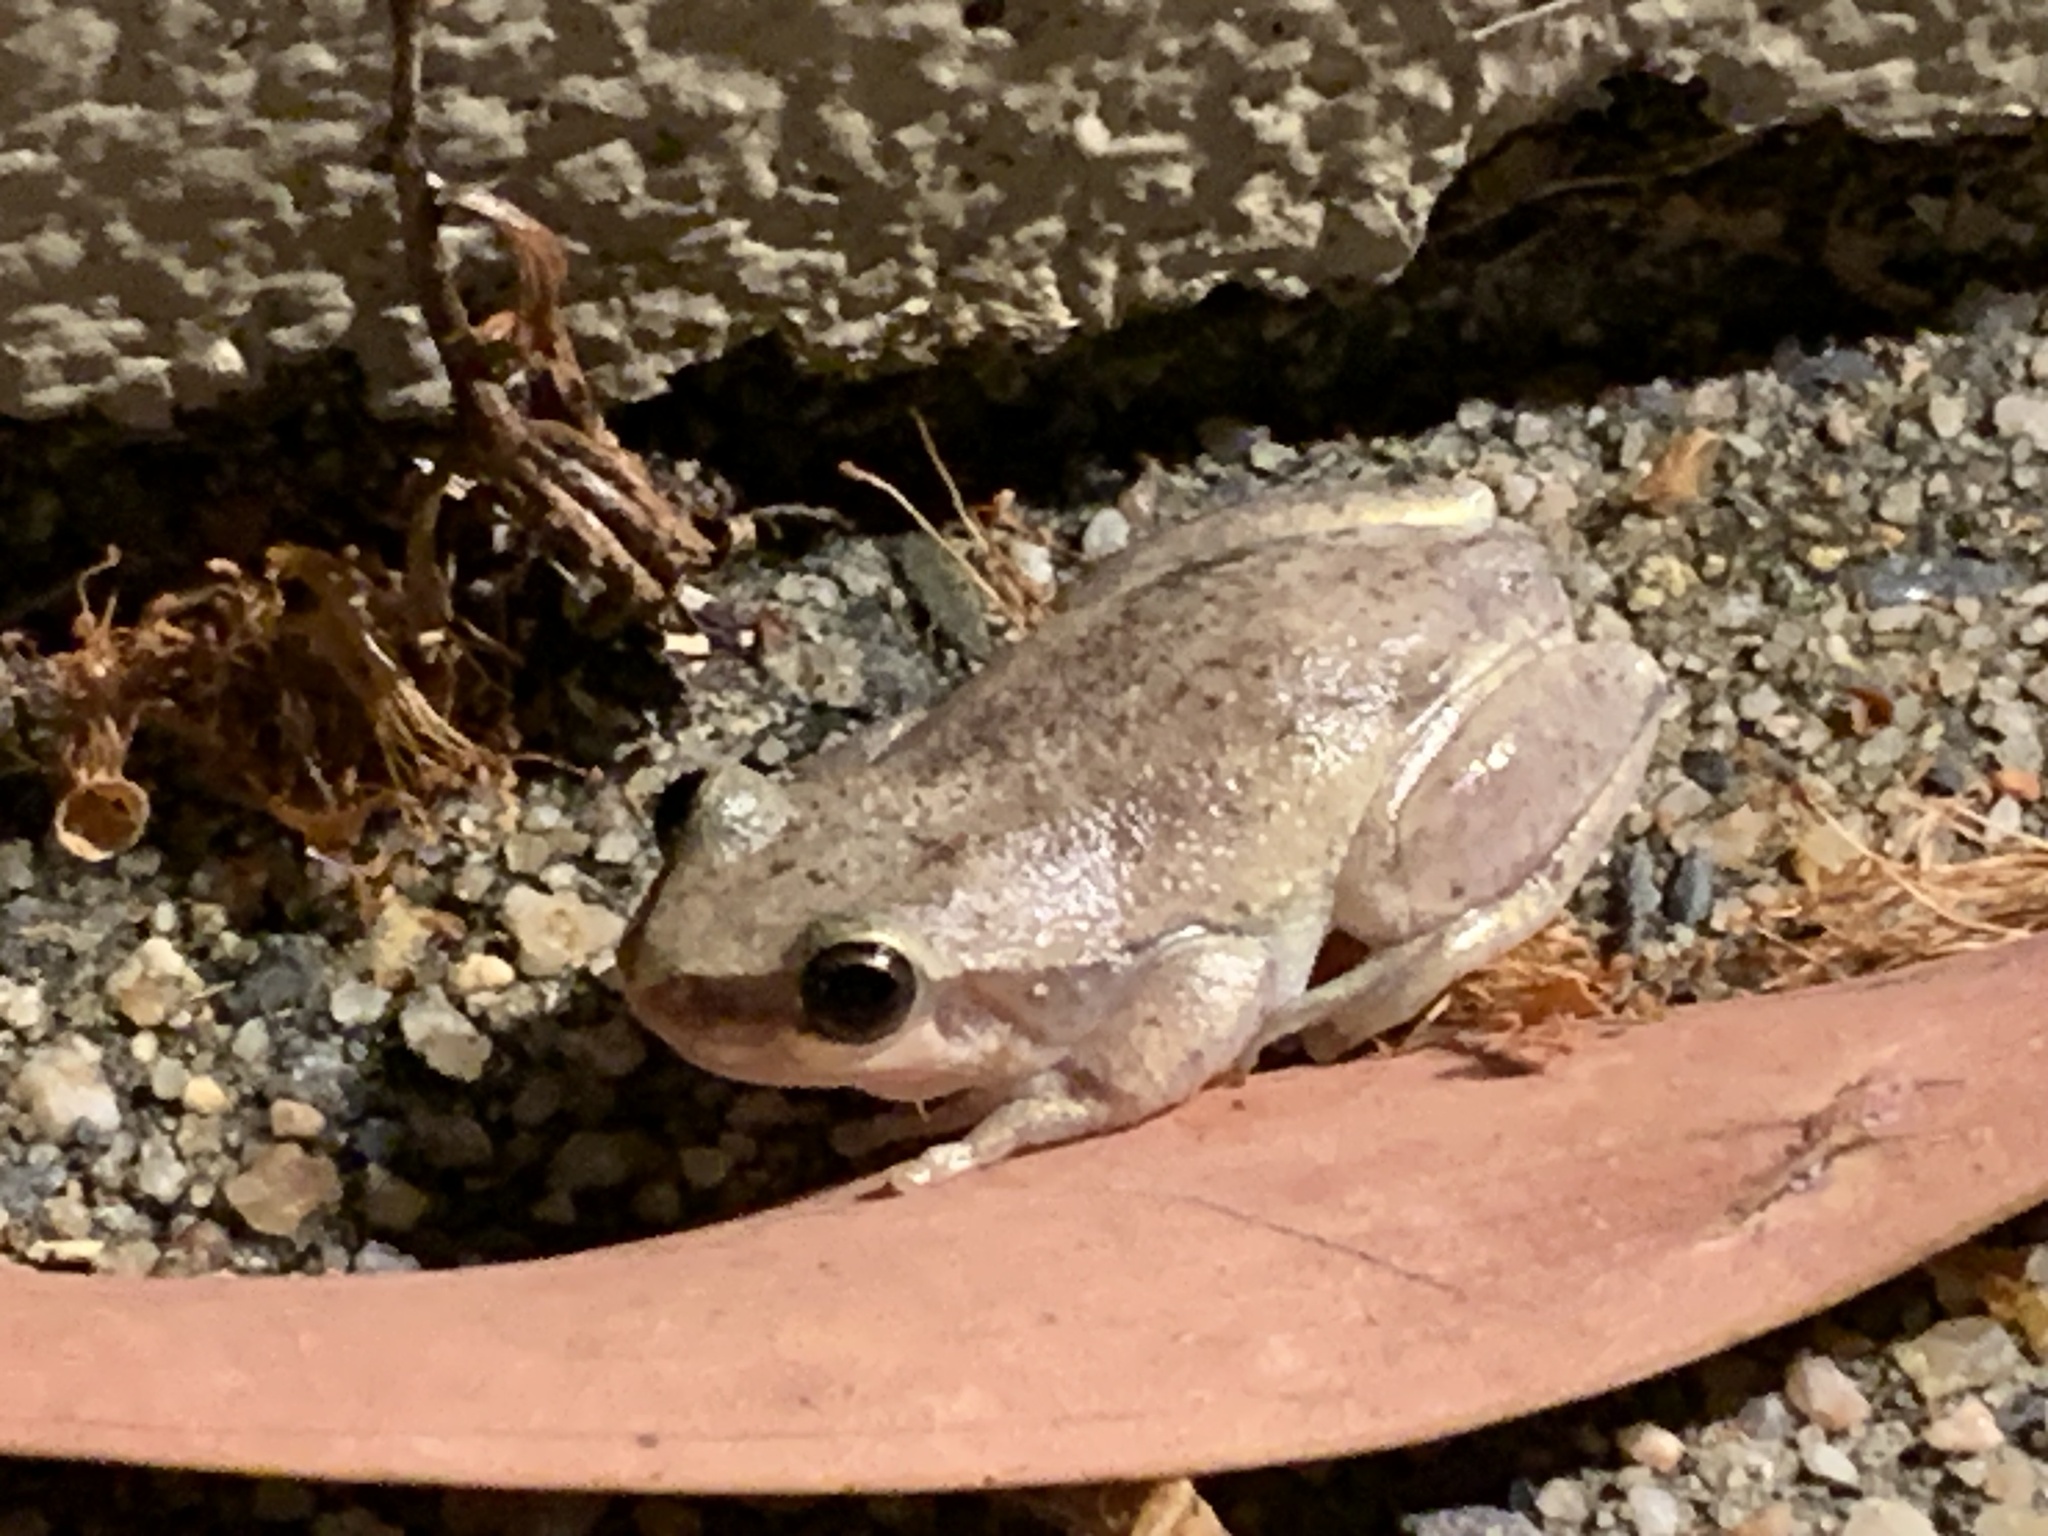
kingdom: Animalia
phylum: Chordata
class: Amphibia
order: Anura
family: Pelodryadidae
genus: Litoria
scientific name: Litoria rubella
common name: Desert tree frog
